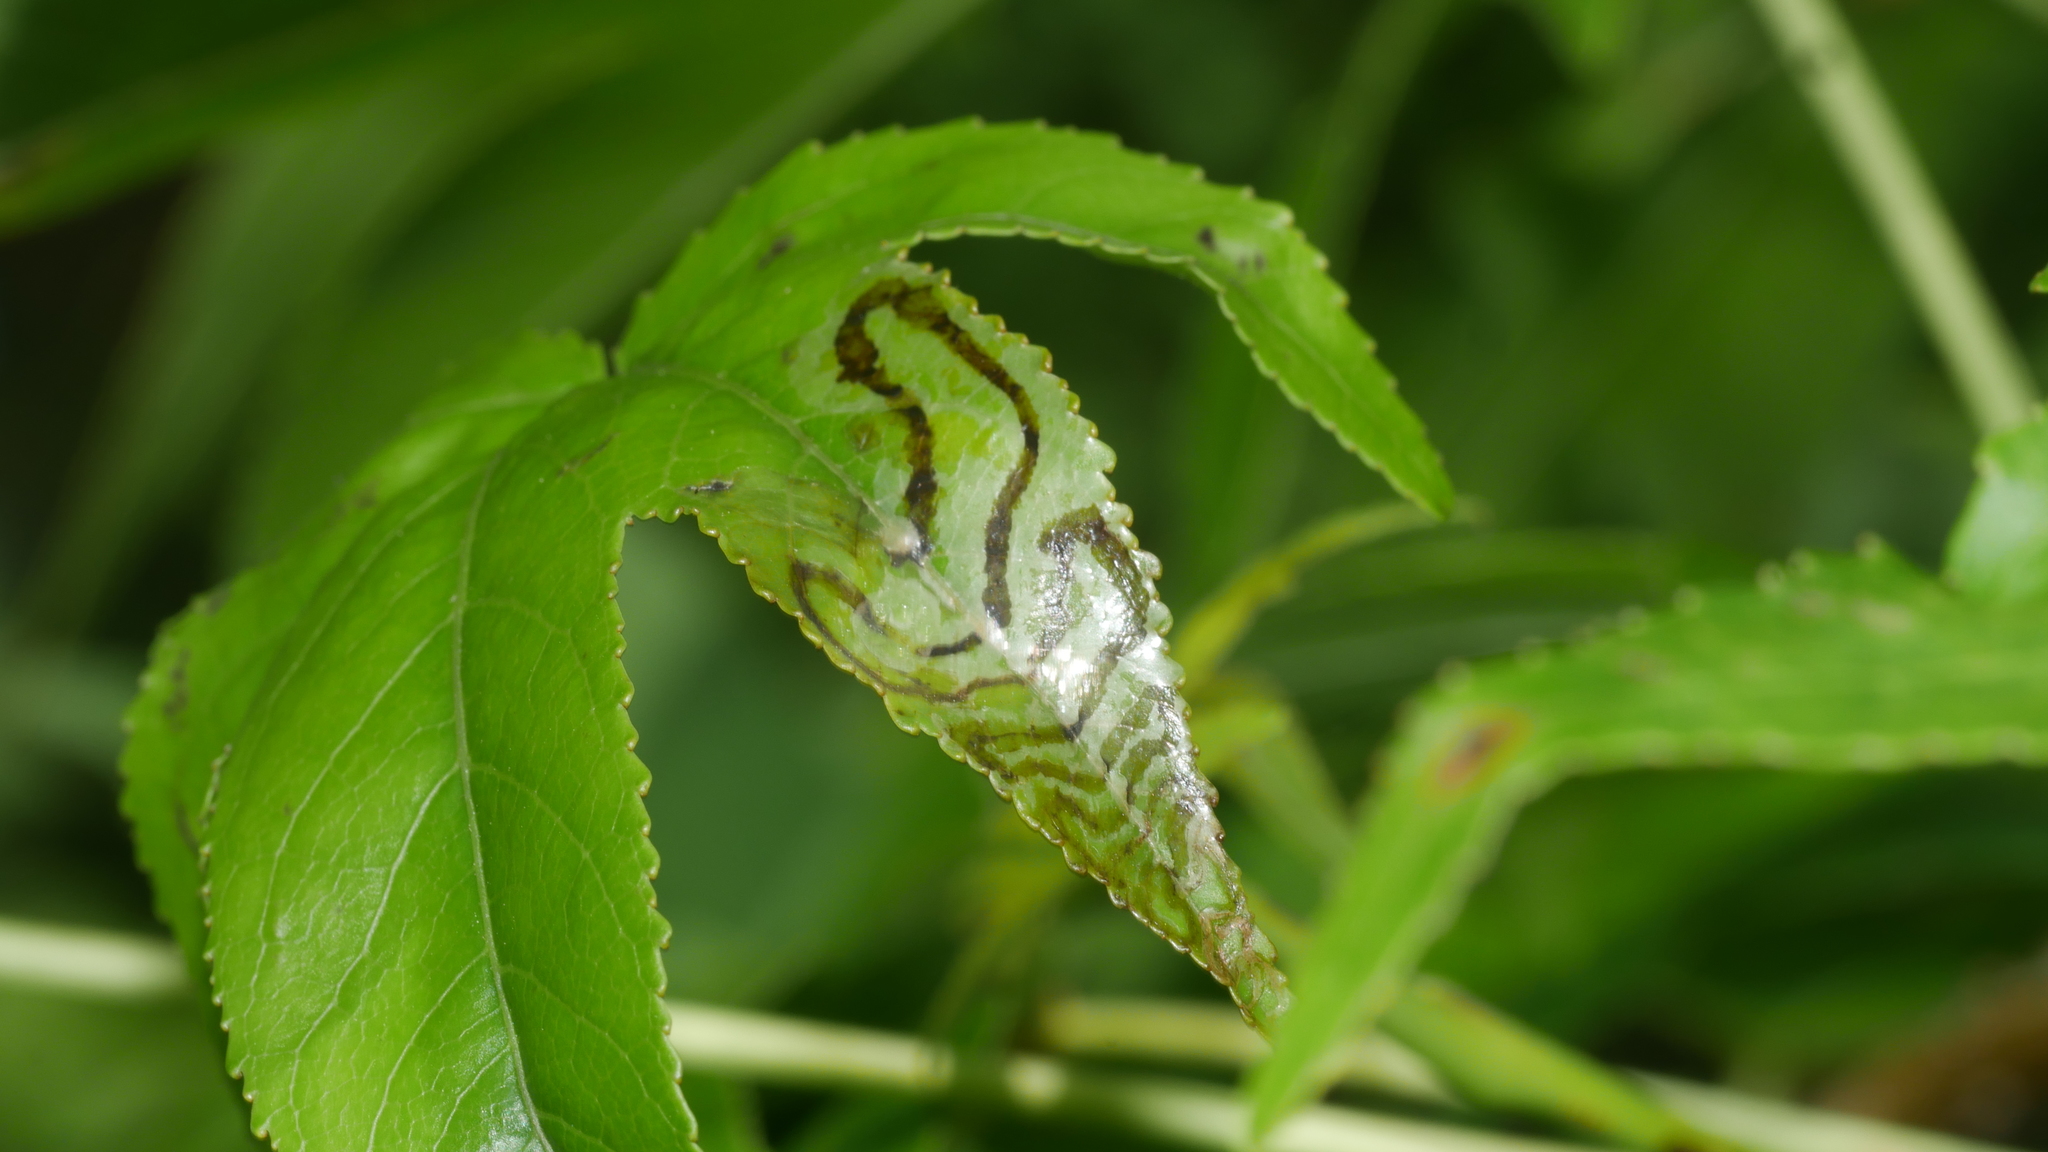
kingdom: Animalia
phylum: Arthropoda
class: Insecta
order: Lepidoptera
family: Gracillariidae
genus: Phyllocnistis
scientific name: Phyllocnistis liquidambarisella
